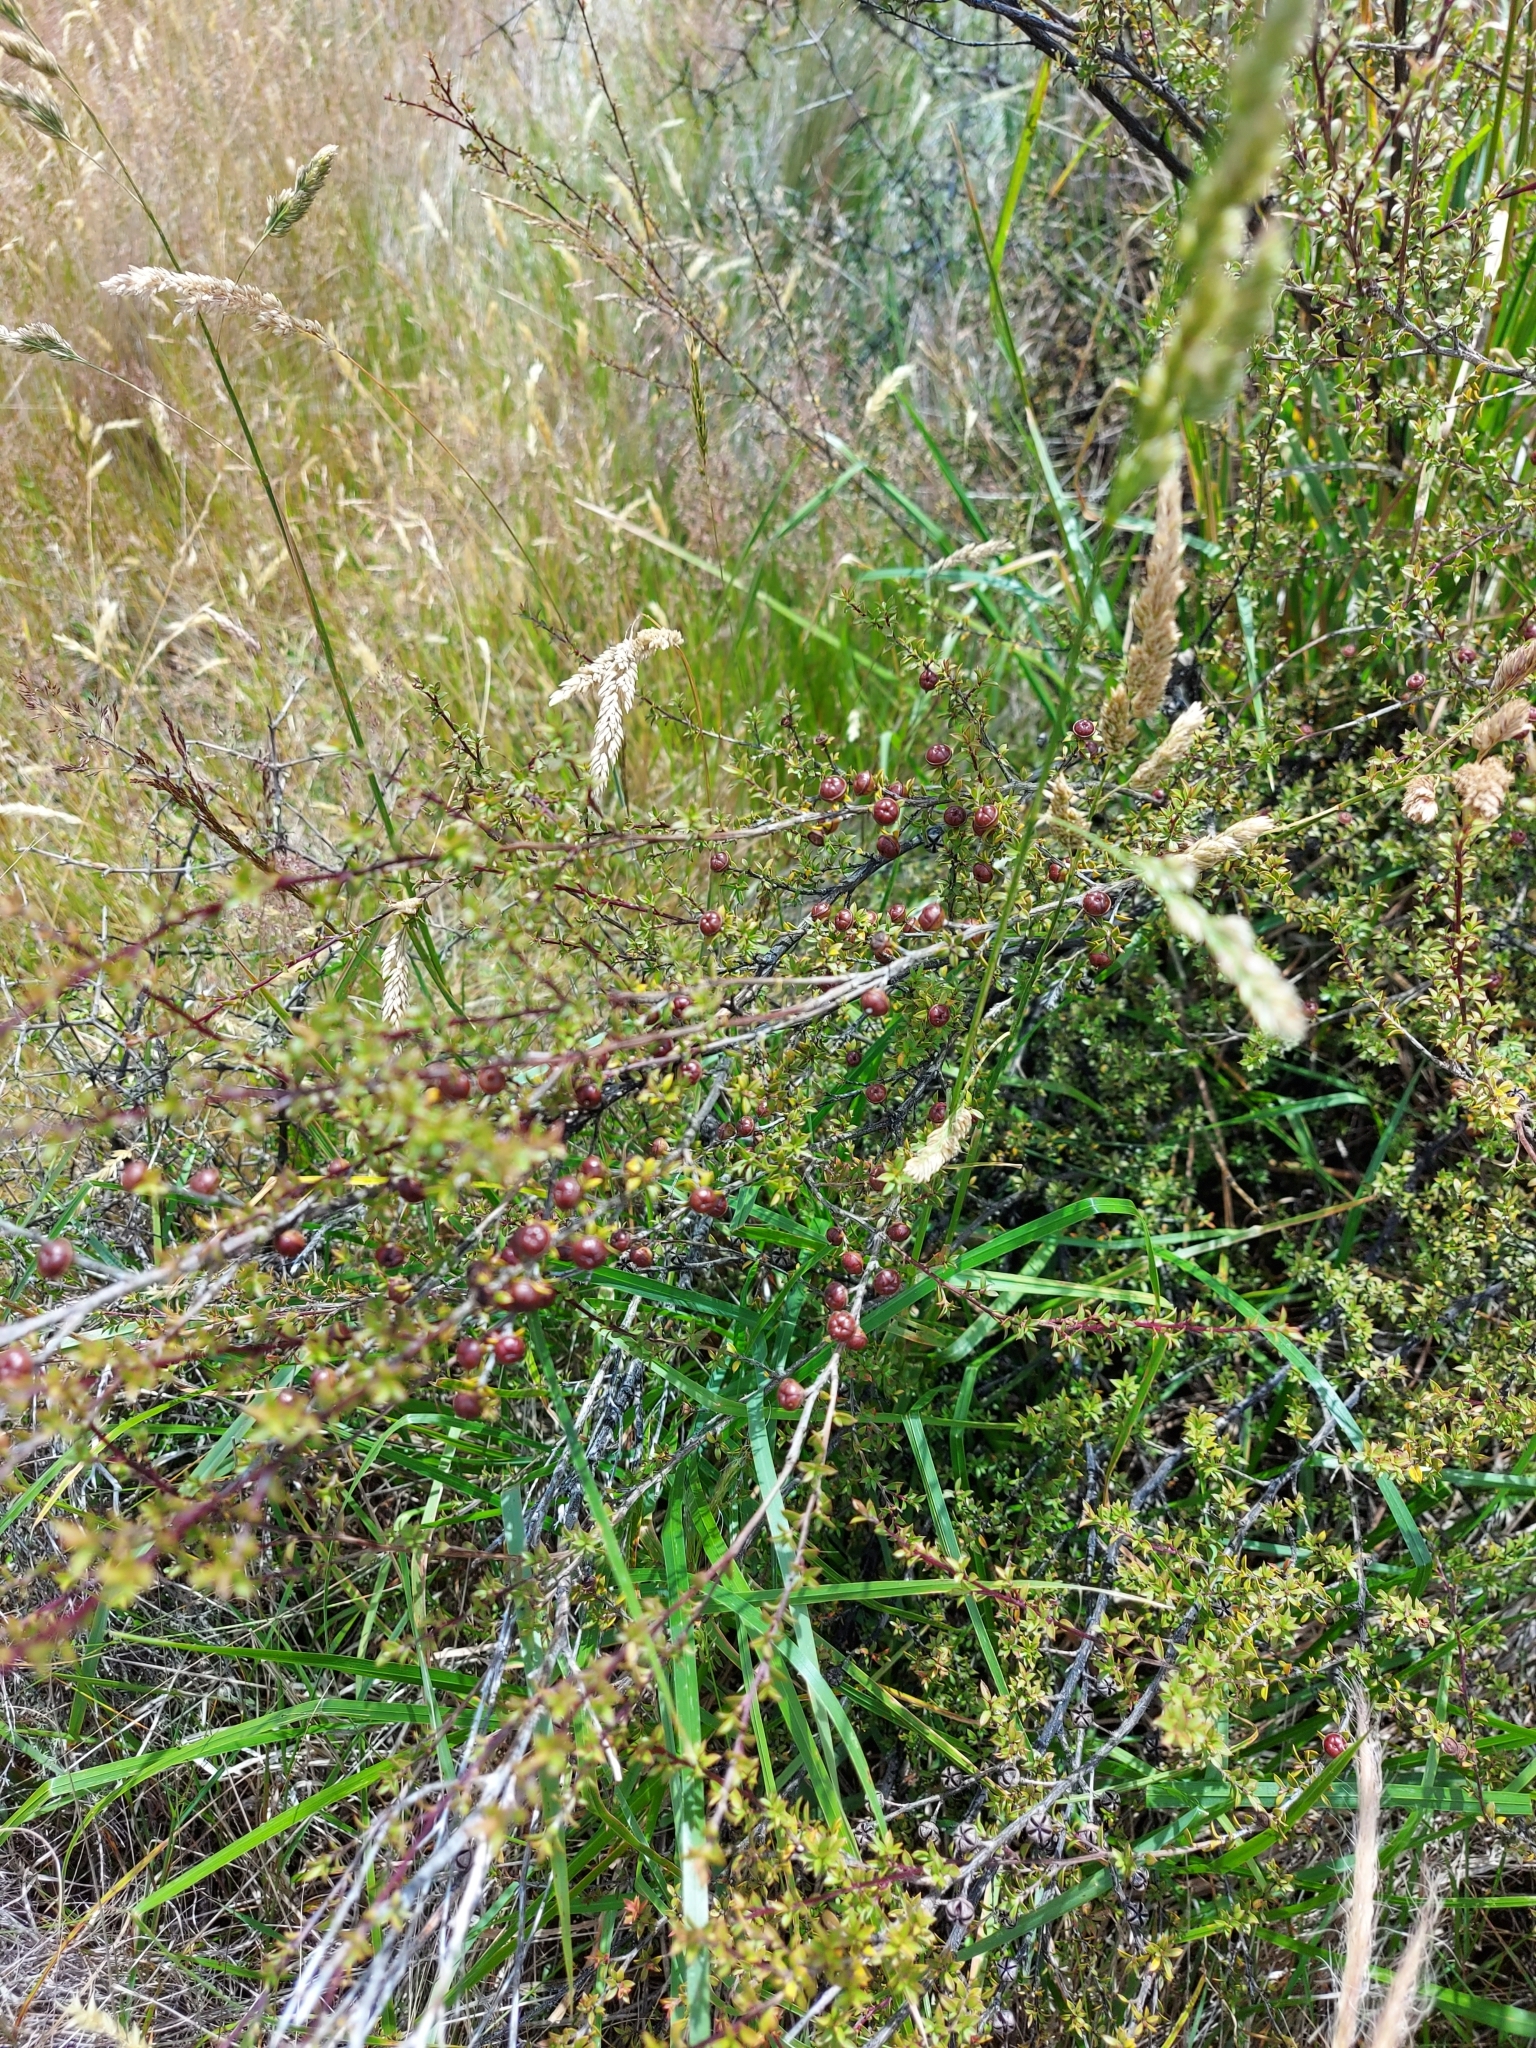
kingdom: Plantae
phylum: Tracheophyta
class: Magnoliopsida
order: Myrtales
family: Myrtaceae
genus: Leptospermum
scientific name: Leptospermum scoparium
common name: Broom tea-tree
